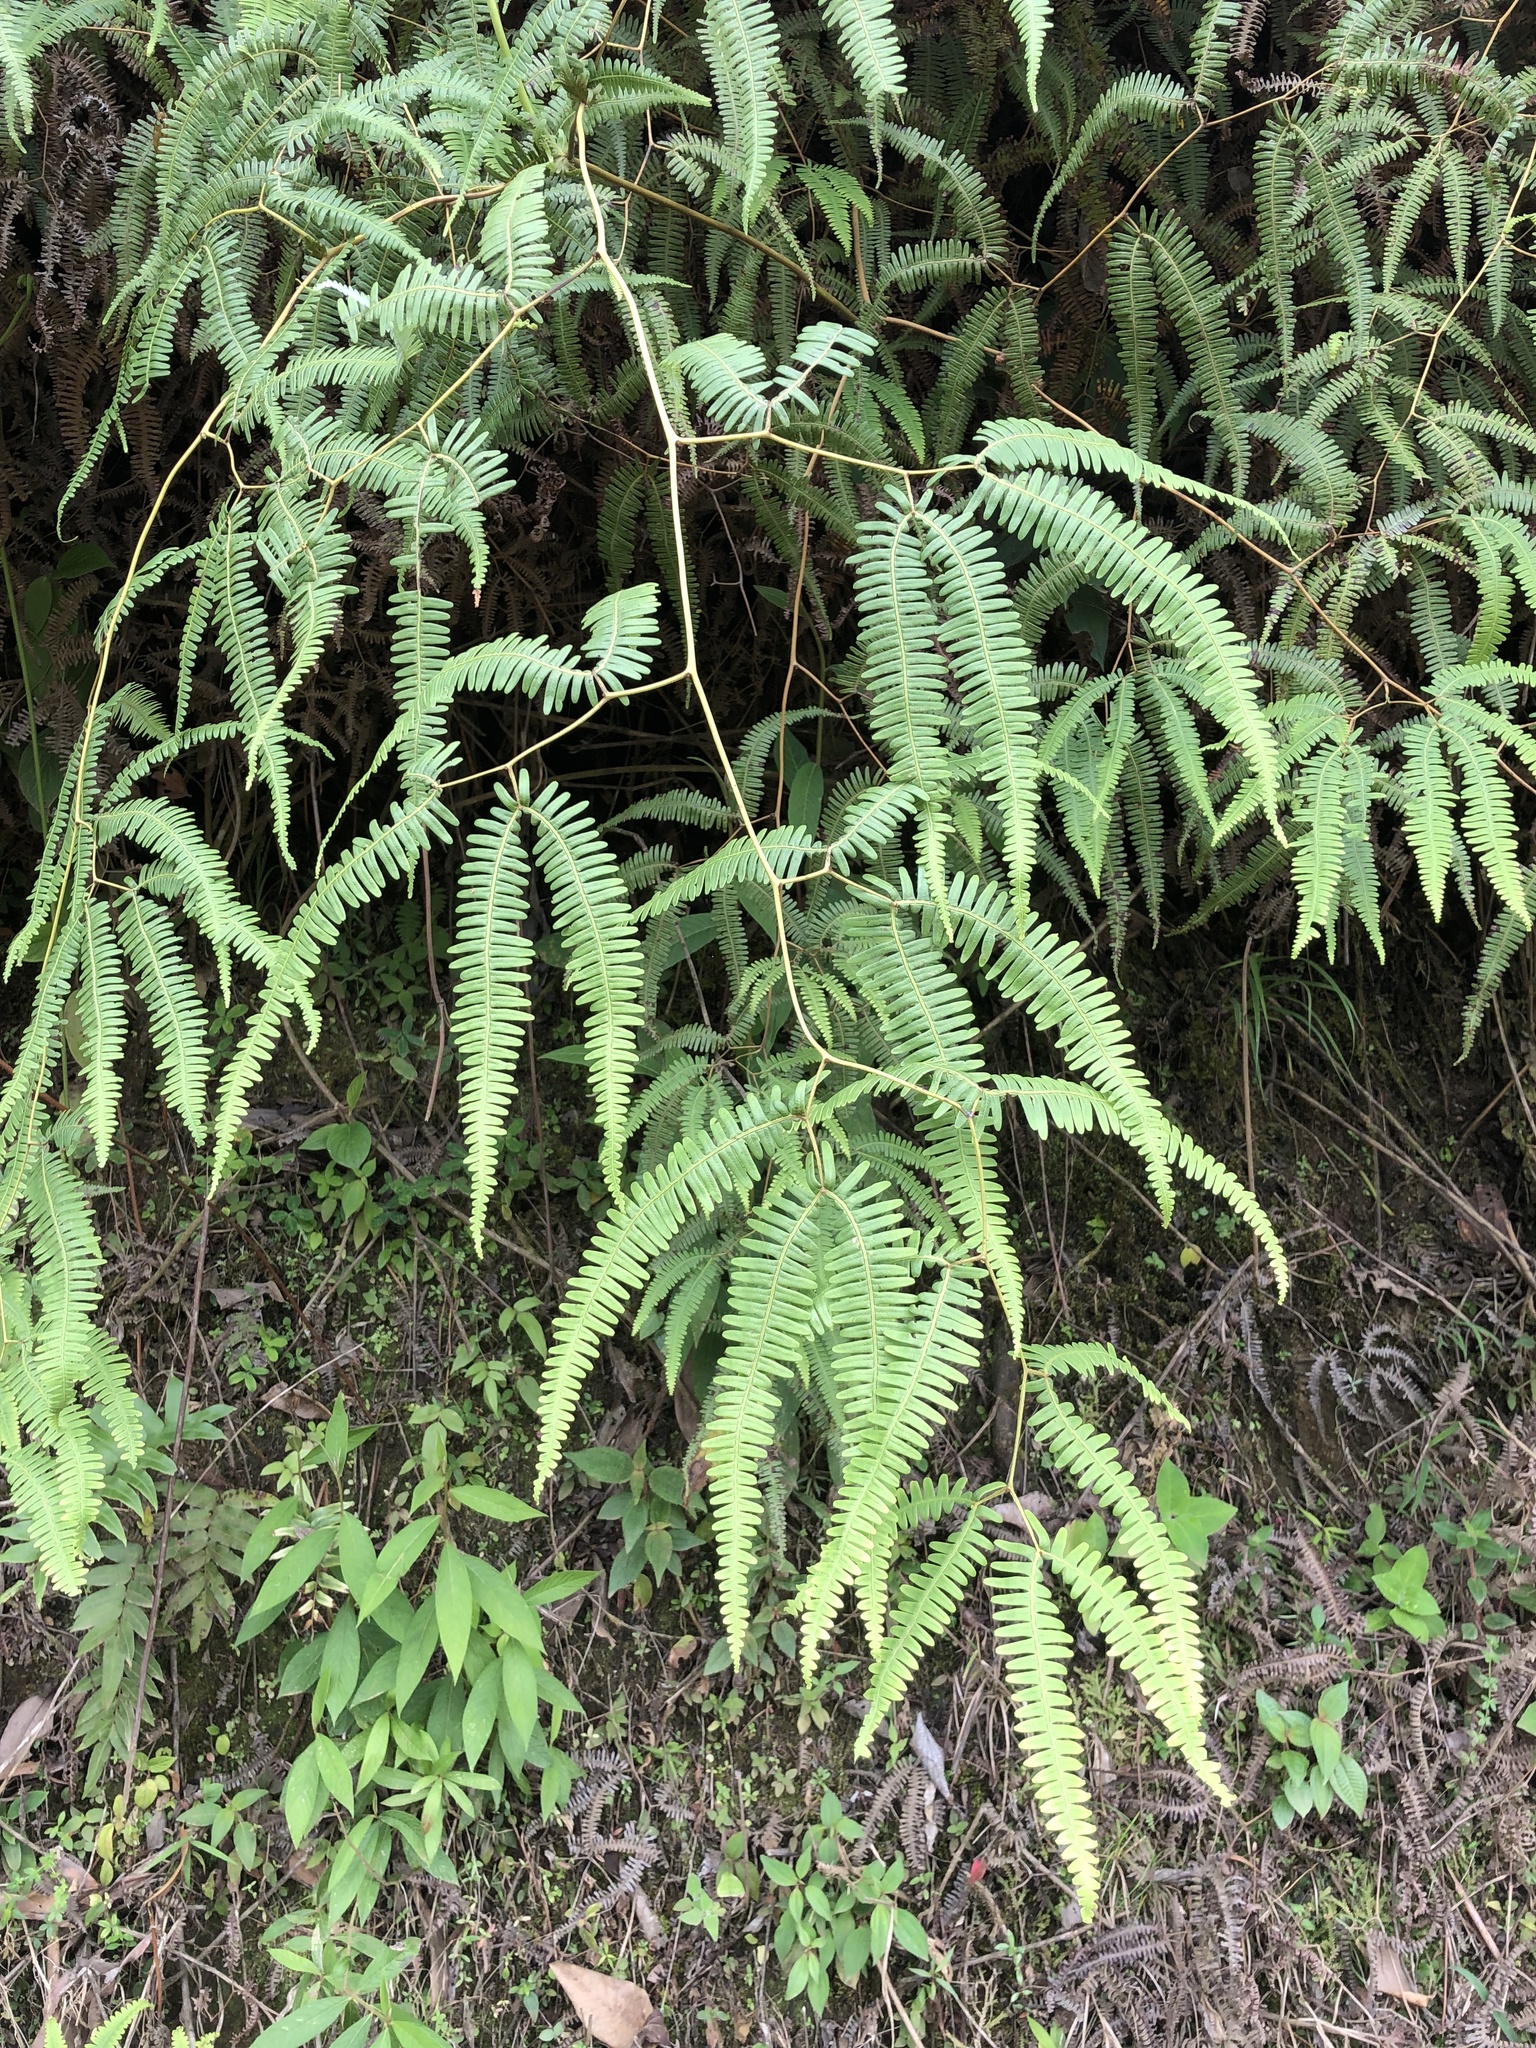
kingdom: Plantae
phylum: Tracheophyta
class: Polypodiopsida
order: Gleicheniales
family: Gleicheniaceae
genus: Gleichenella
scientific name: Gleichenella pectinata
